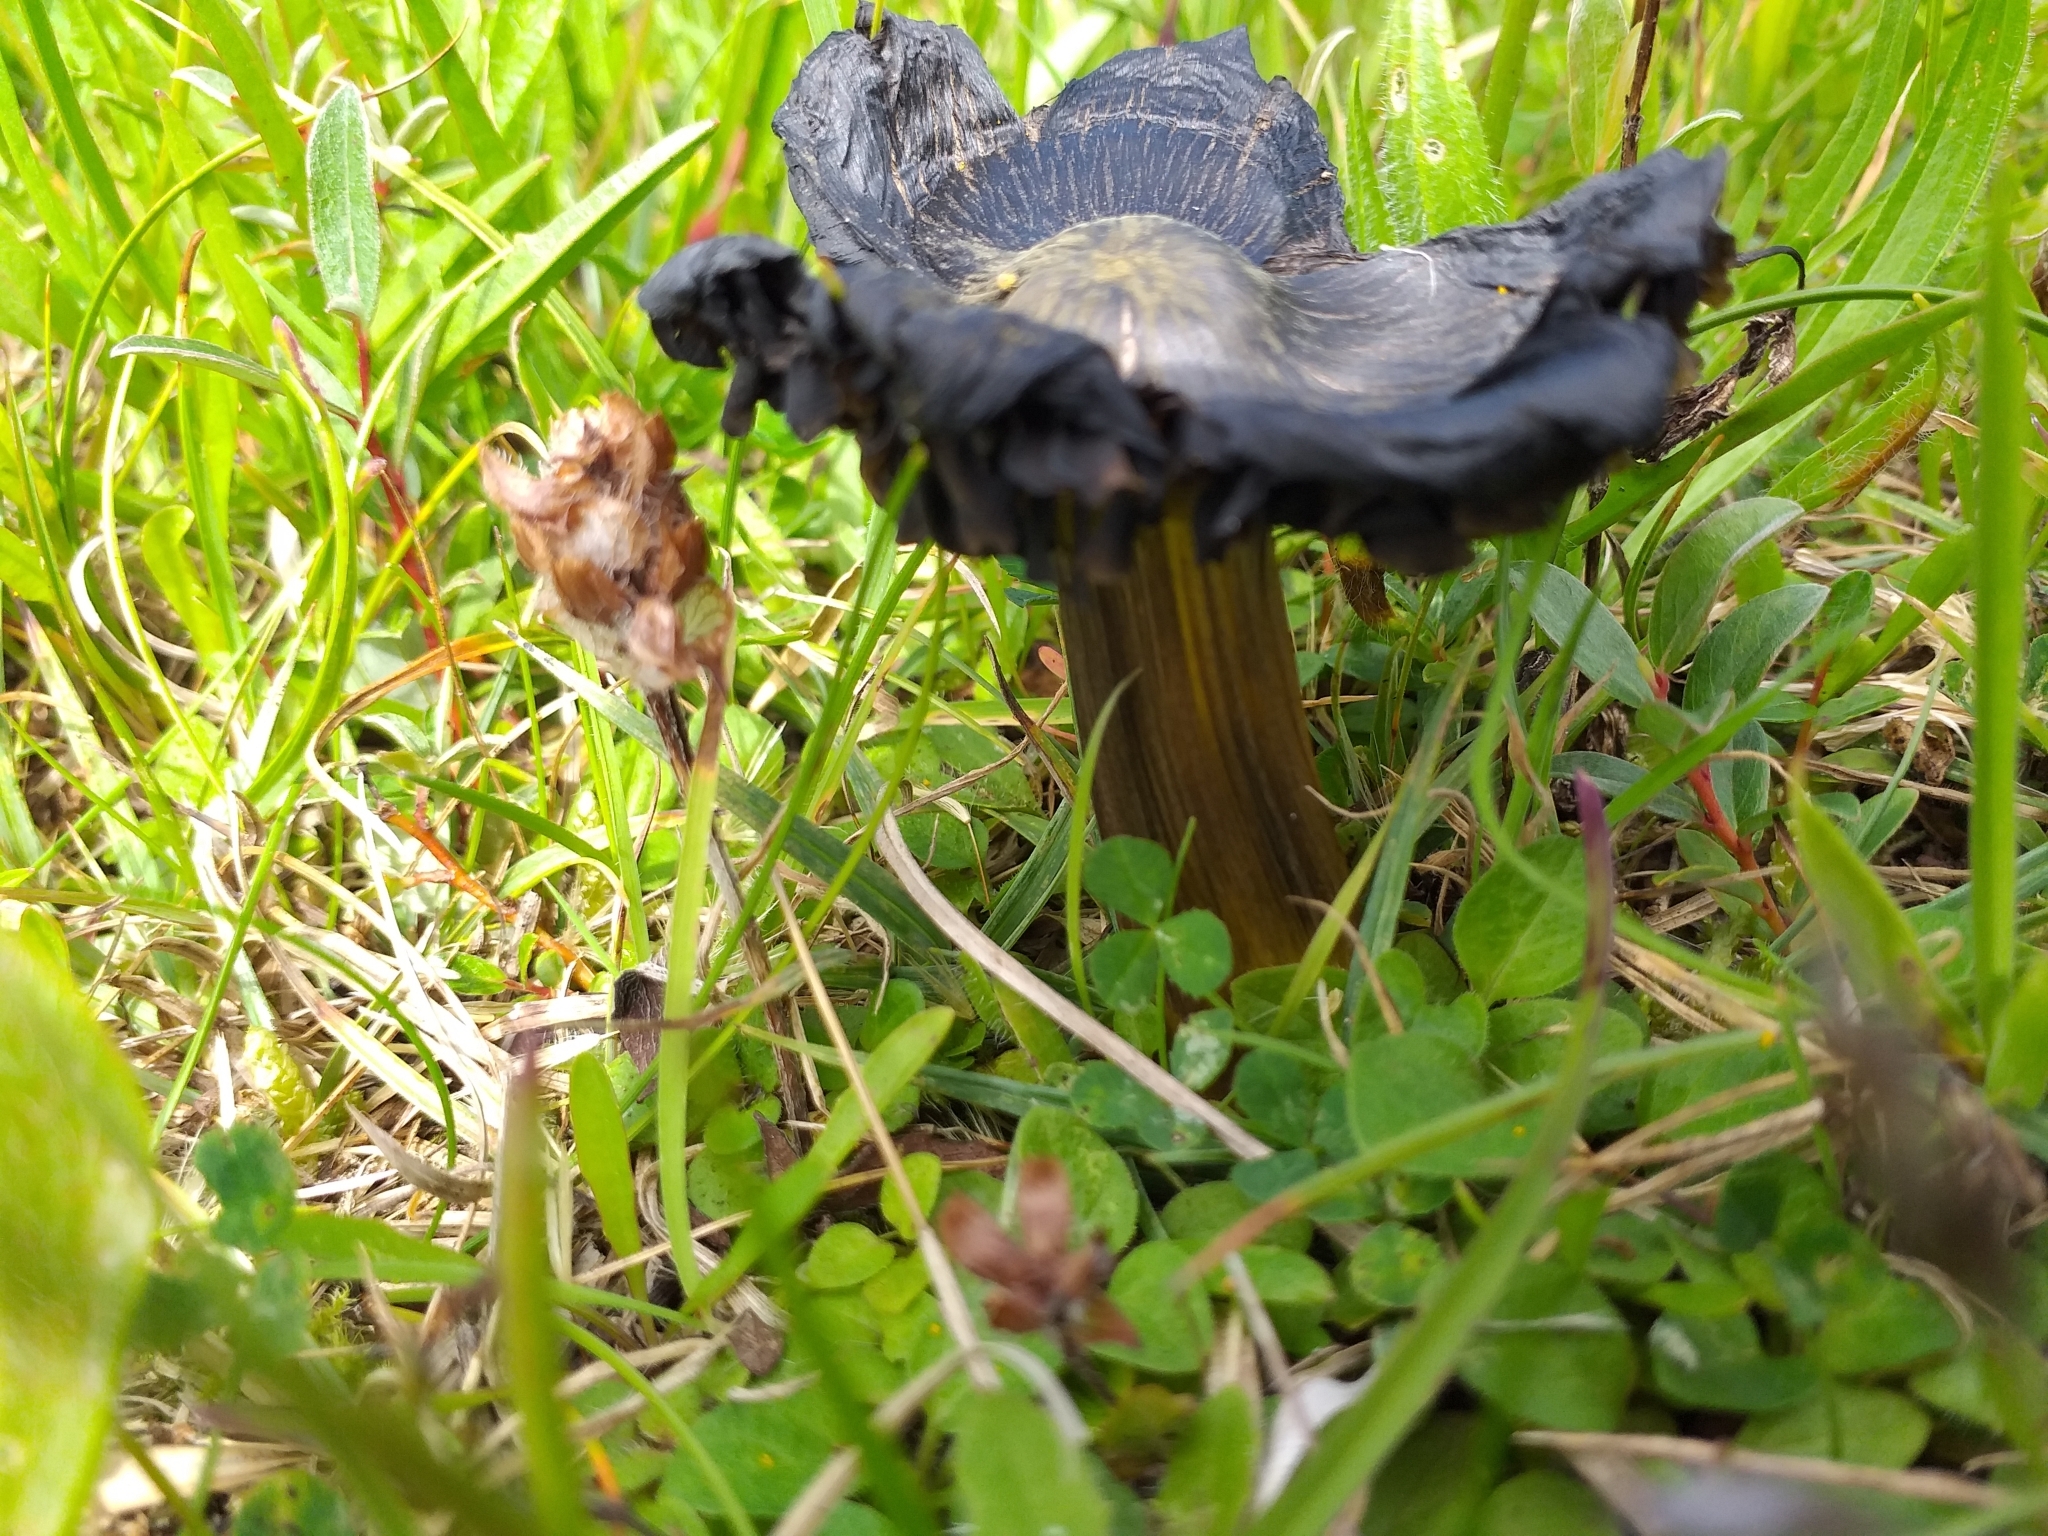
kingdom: Fungi
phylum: Basidiomycota
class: Agaricomycetes
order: Agaricales
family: Hygrophoraceae
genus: Hygrocybe
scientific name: Hygrocybe conica
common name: Blackening wax-cap
